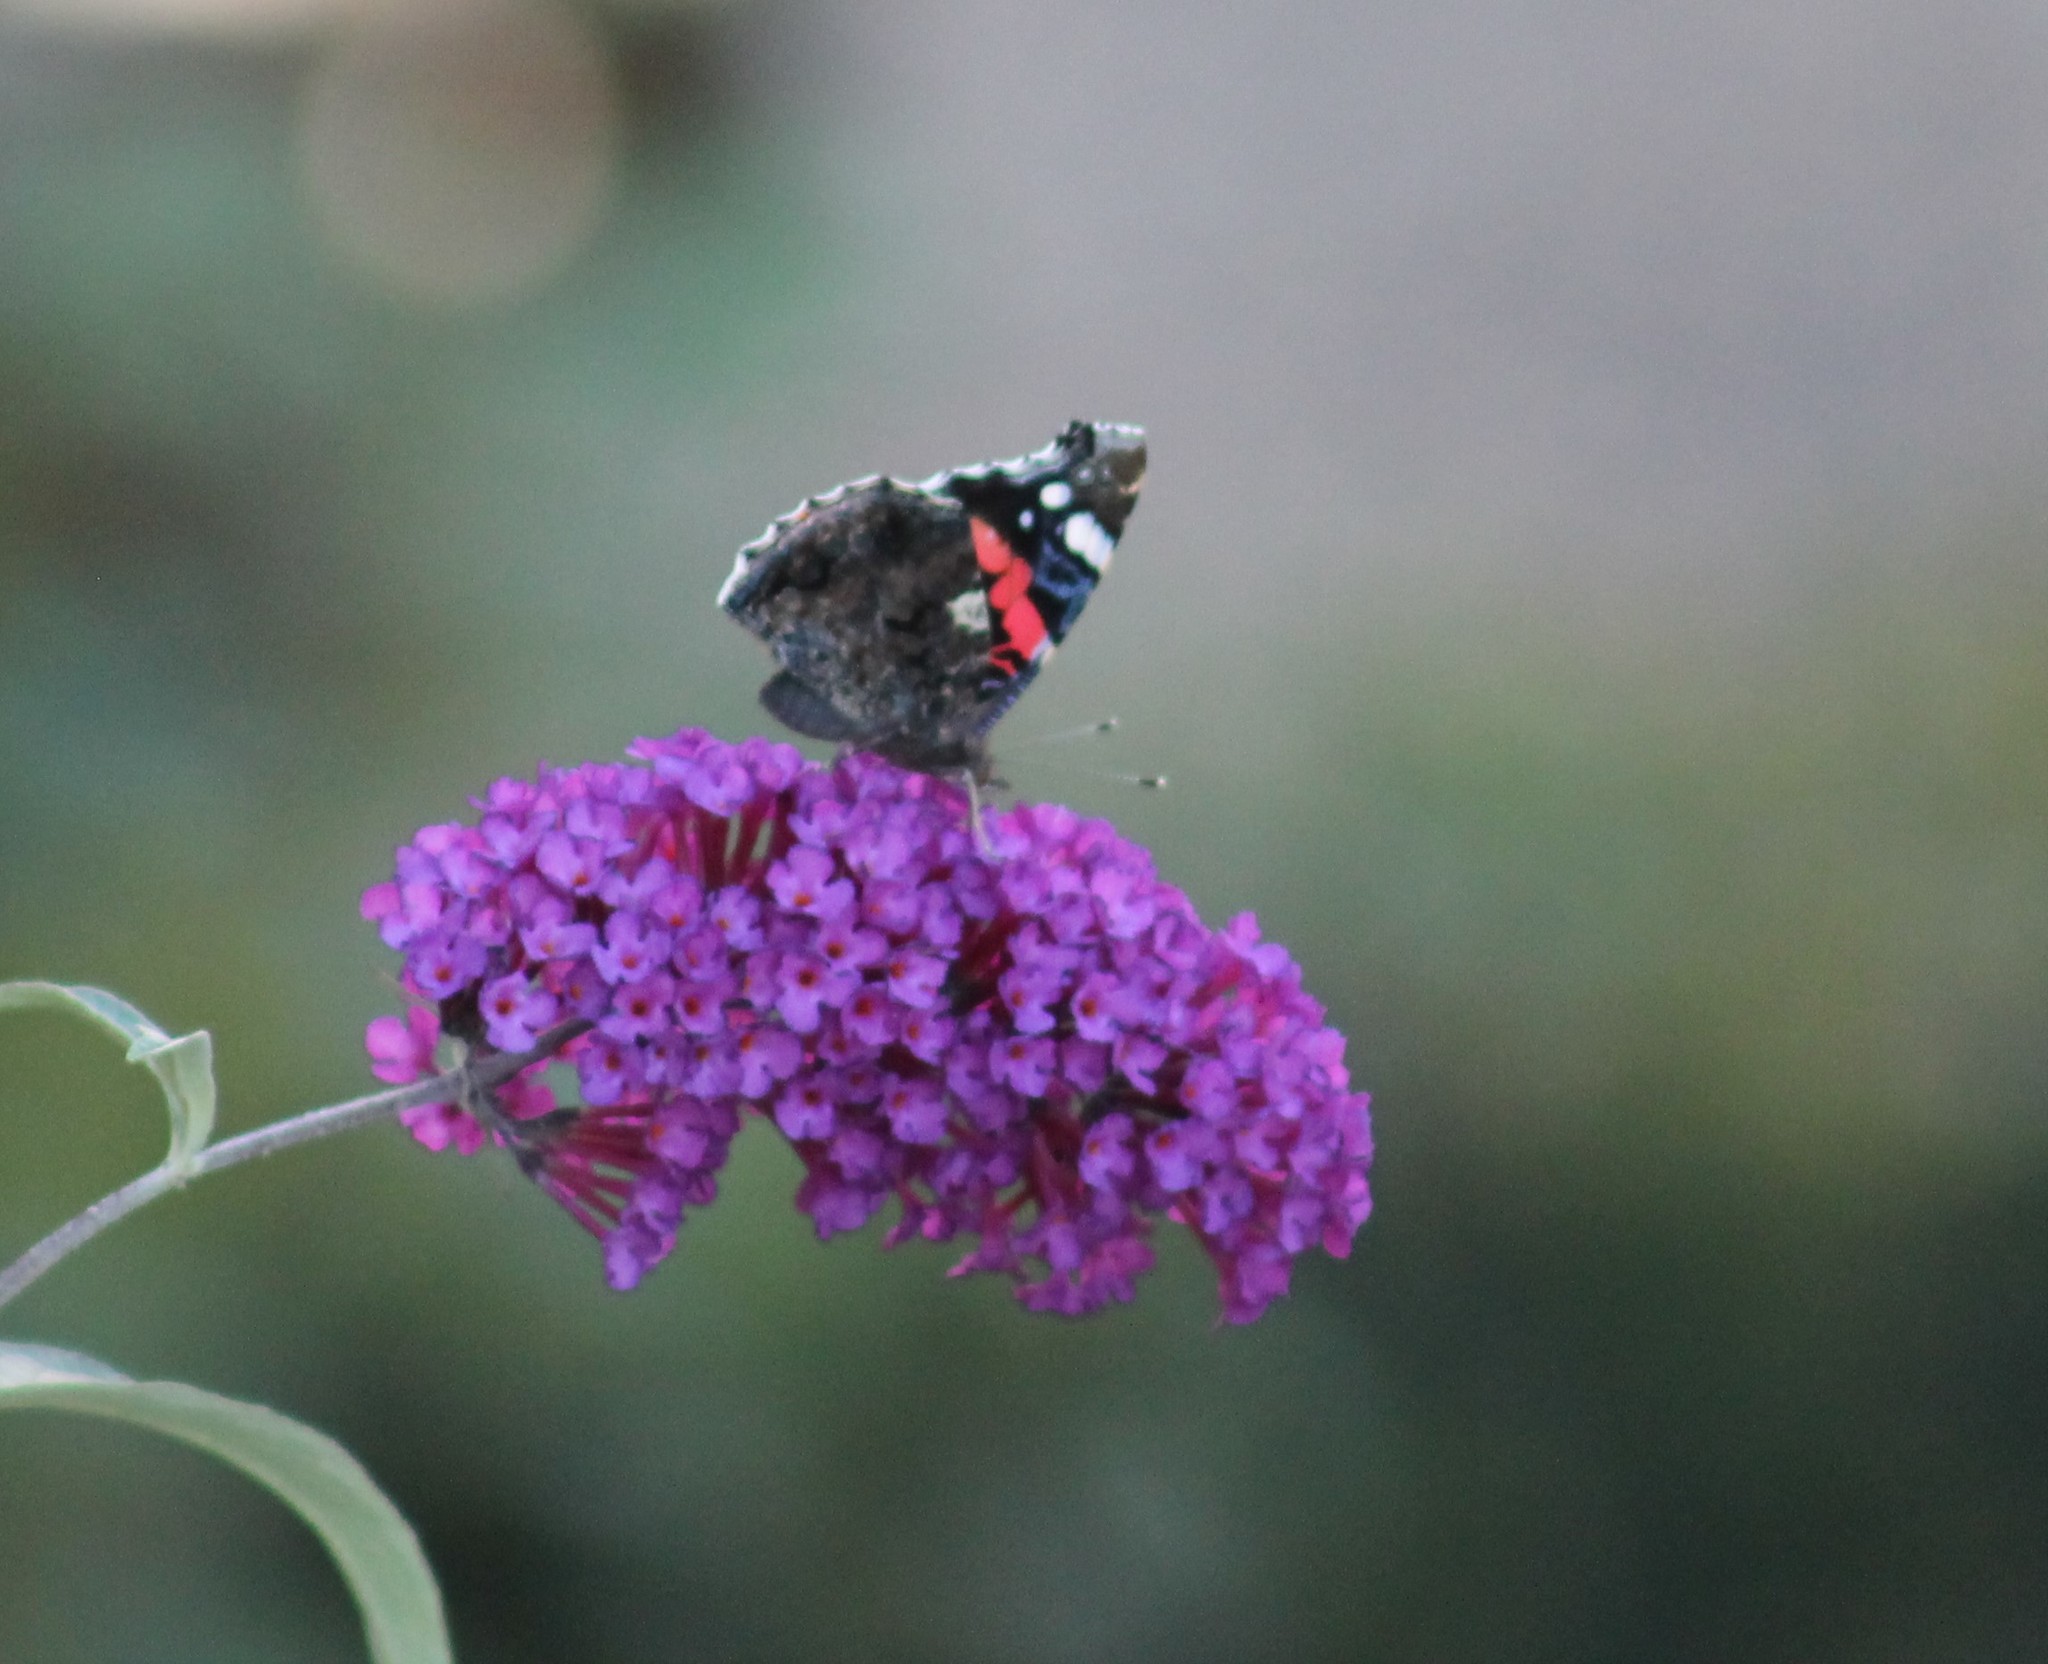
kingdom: Animalia
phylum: Arthropoda
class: Insecta
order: Lepidoptera
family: Nymphalidae
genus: Vanessa
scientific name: Vanessa atalanta
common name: Red admiral
